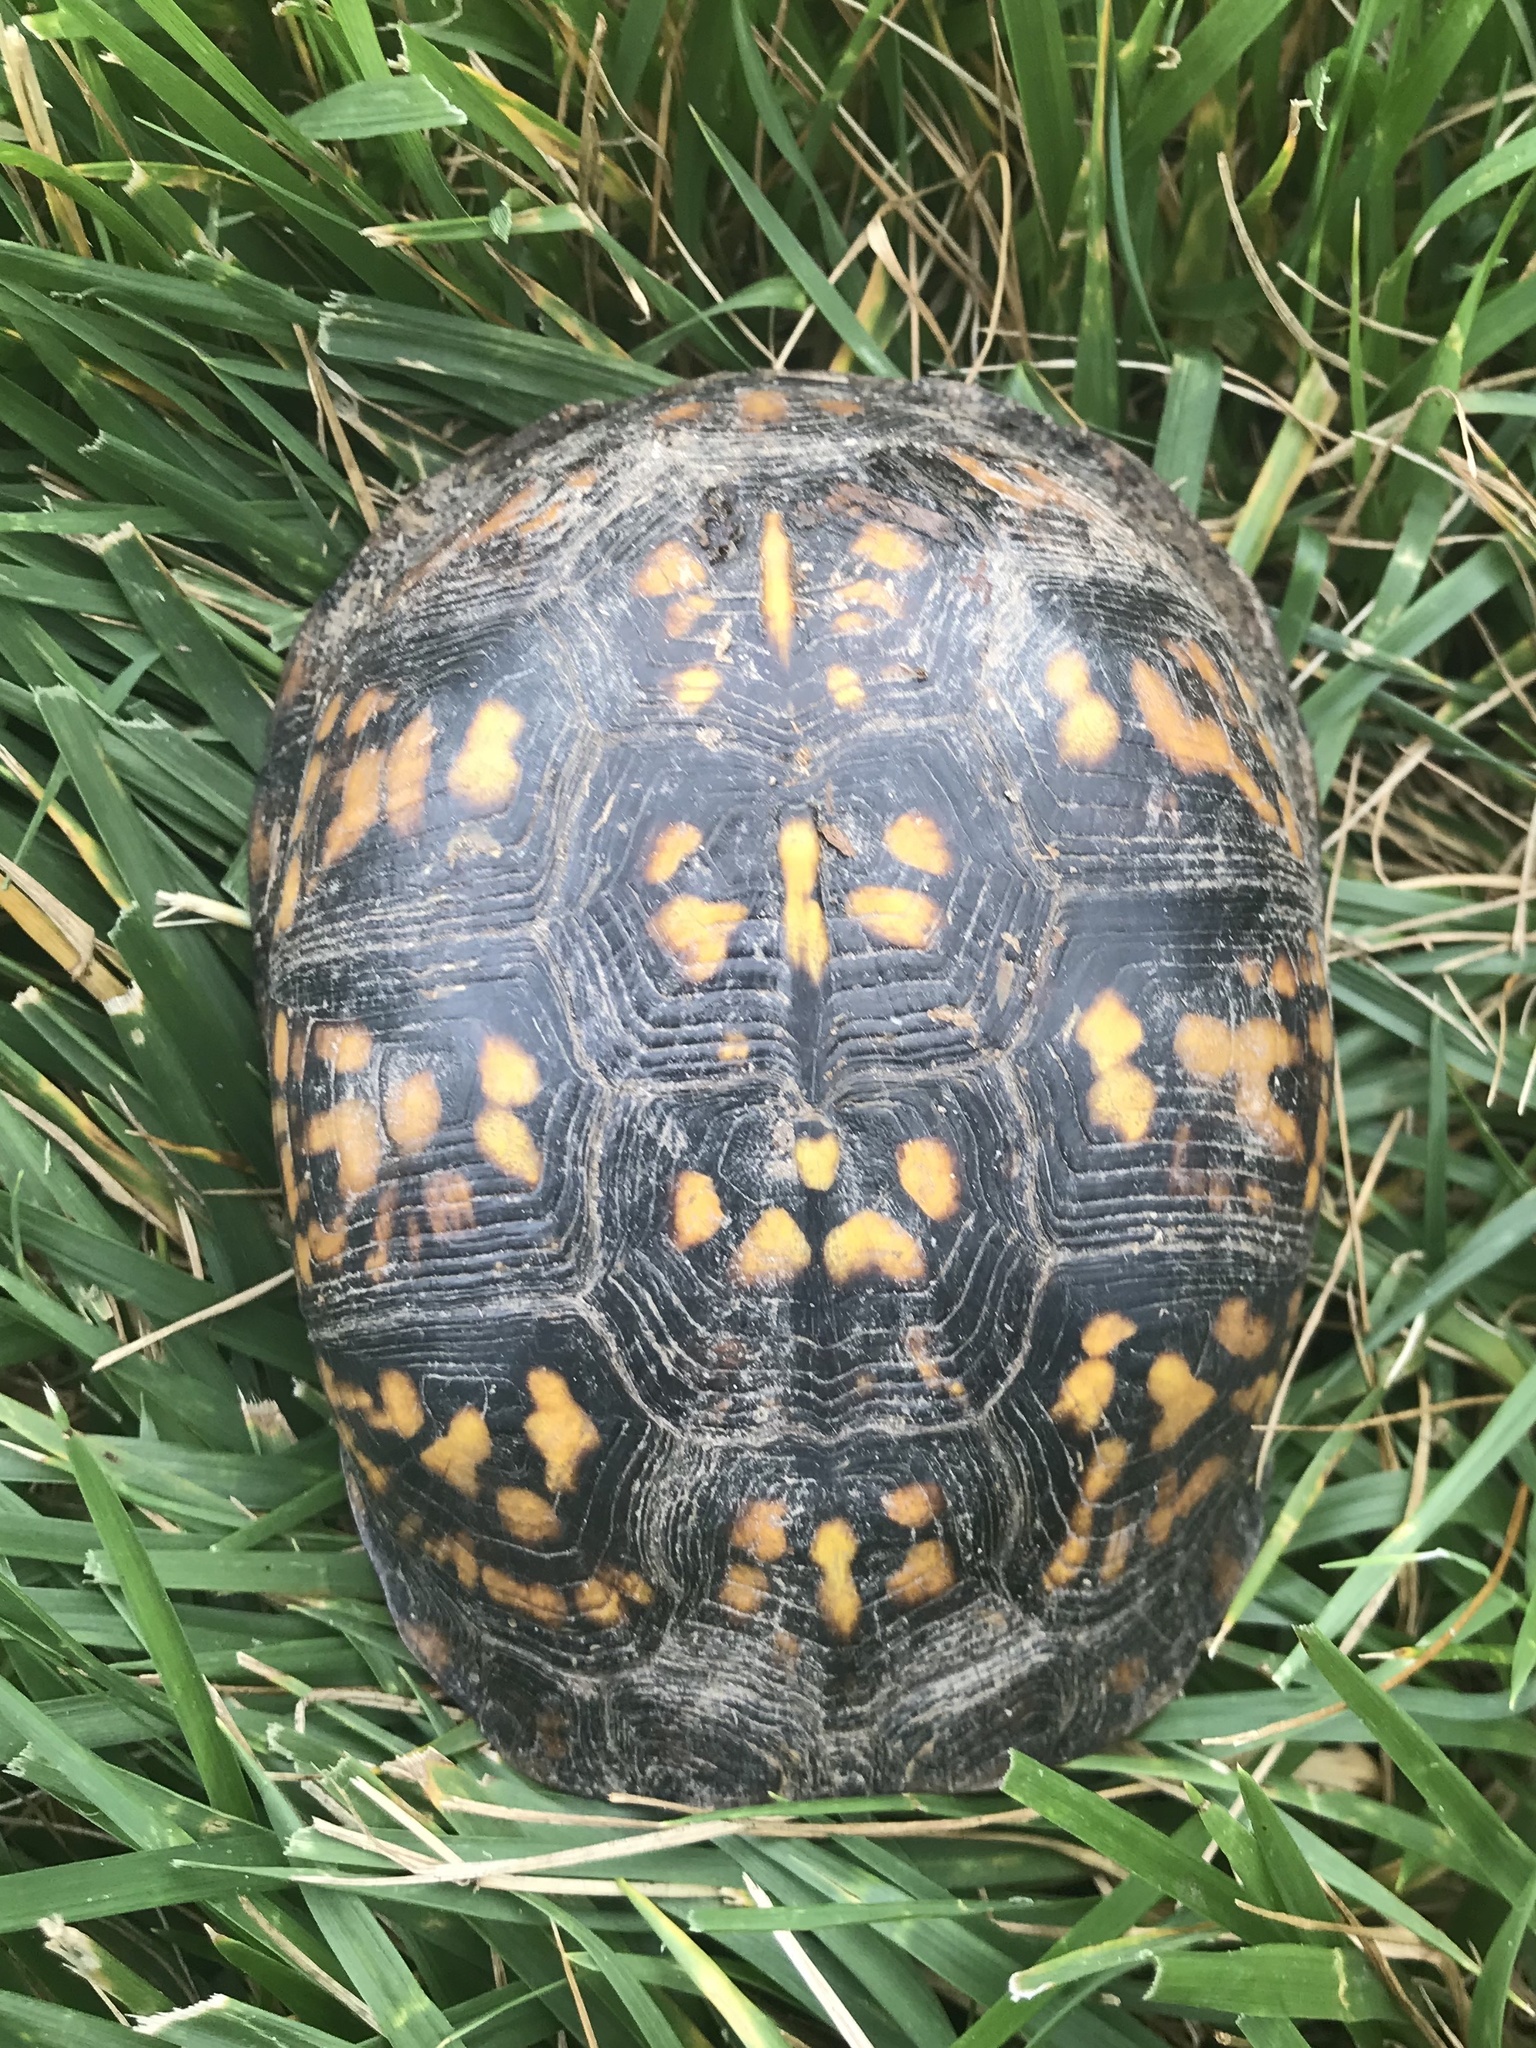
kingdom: Animalia
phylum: Chordata
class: Testudines
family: Emydidae
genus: Terrapene
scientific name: Terrapene carolina
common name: Common box turtle
